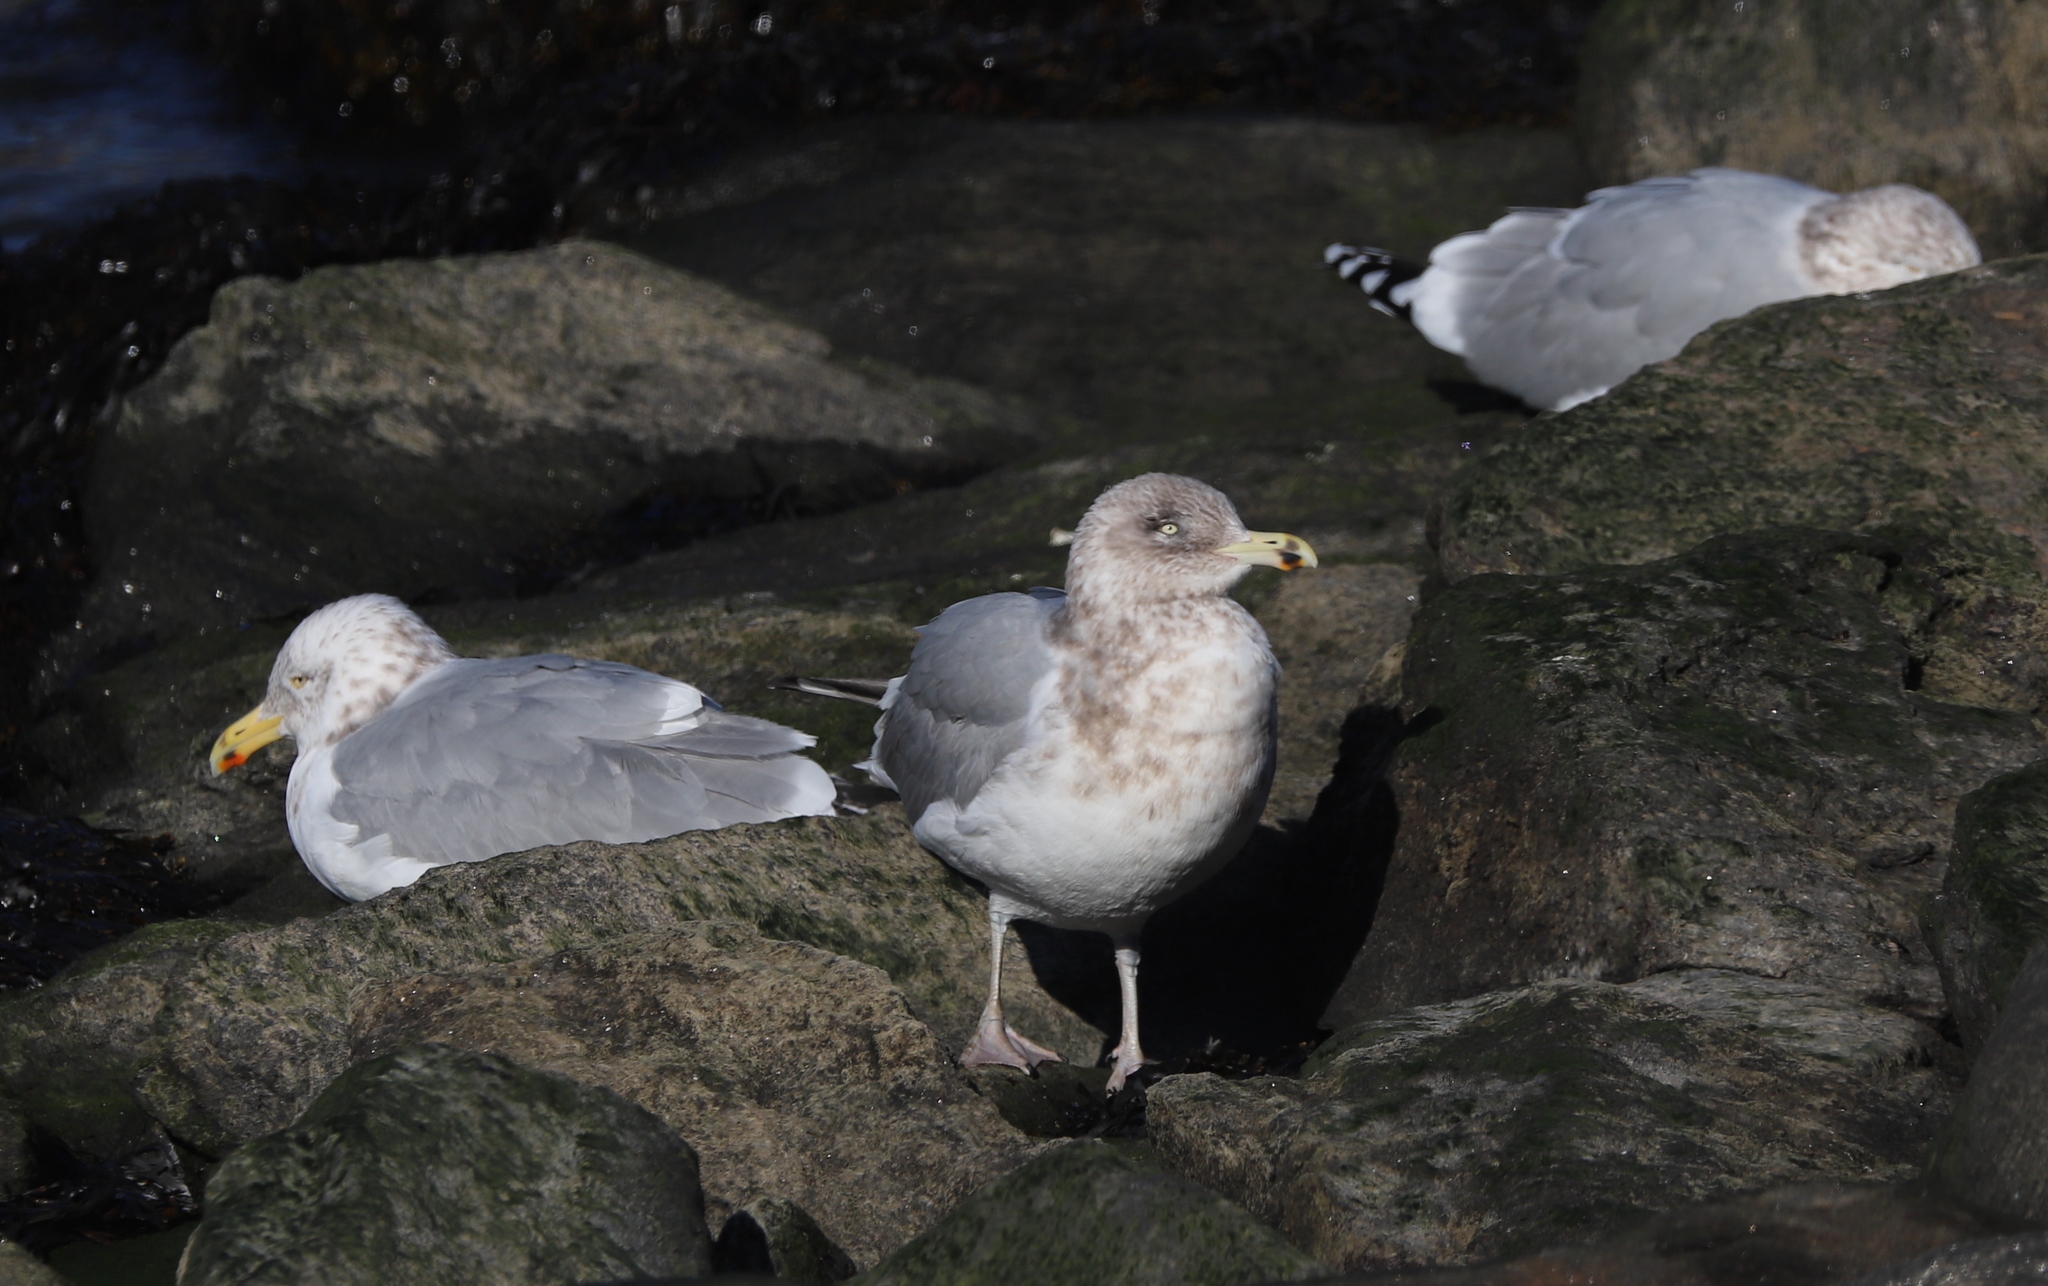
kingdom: Animalia
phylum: Chordata
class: Aves
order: Charadriiformes
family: Laridae
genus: Larus
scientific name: Larus argentatus
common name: Herring gull
